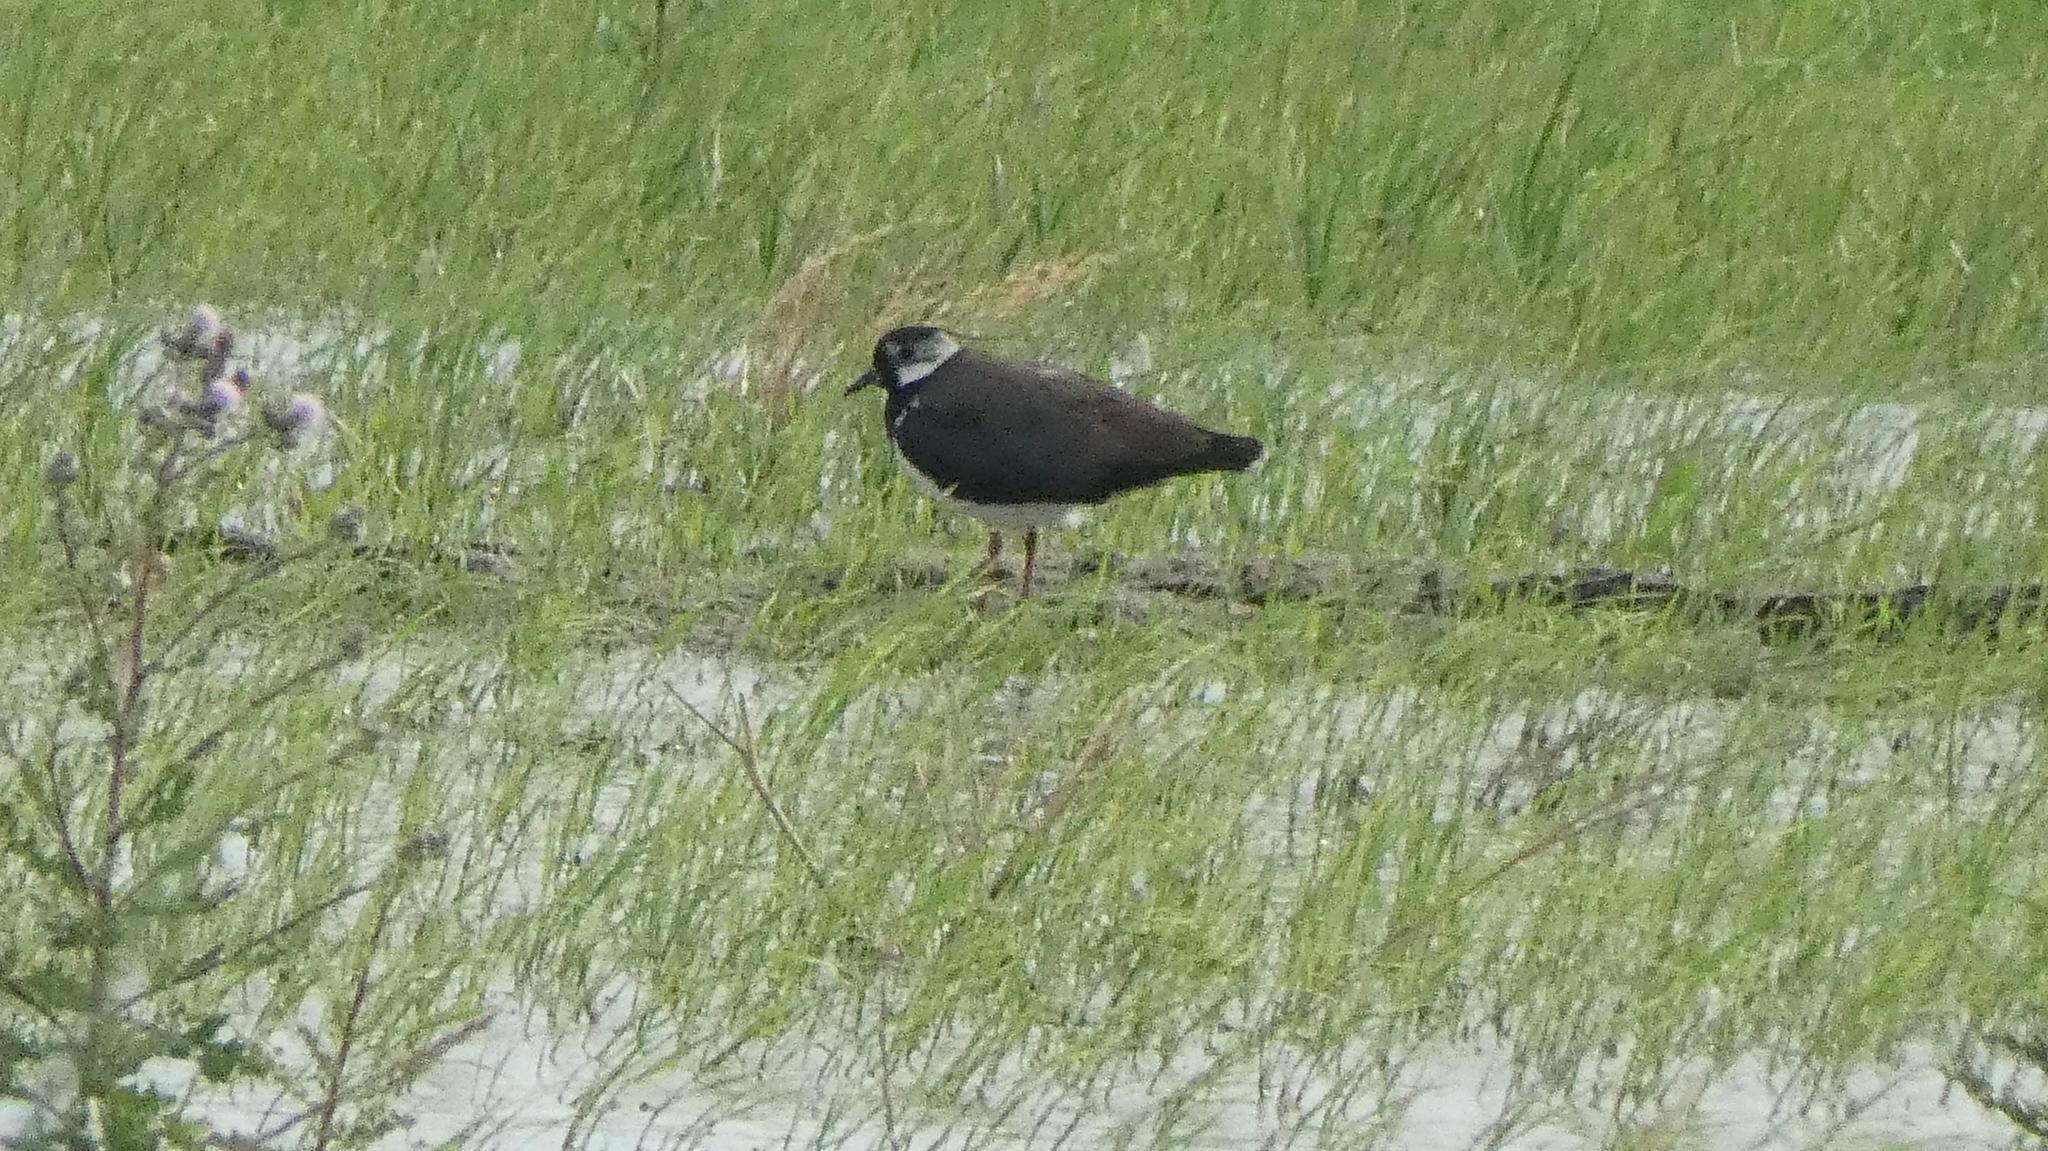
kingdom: Animalia
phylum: Chordata
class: Aves
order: Charadriiformes
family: Charadriidae
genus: Vanellus
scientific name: Vanellus vanellus
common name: Northern lapwing
